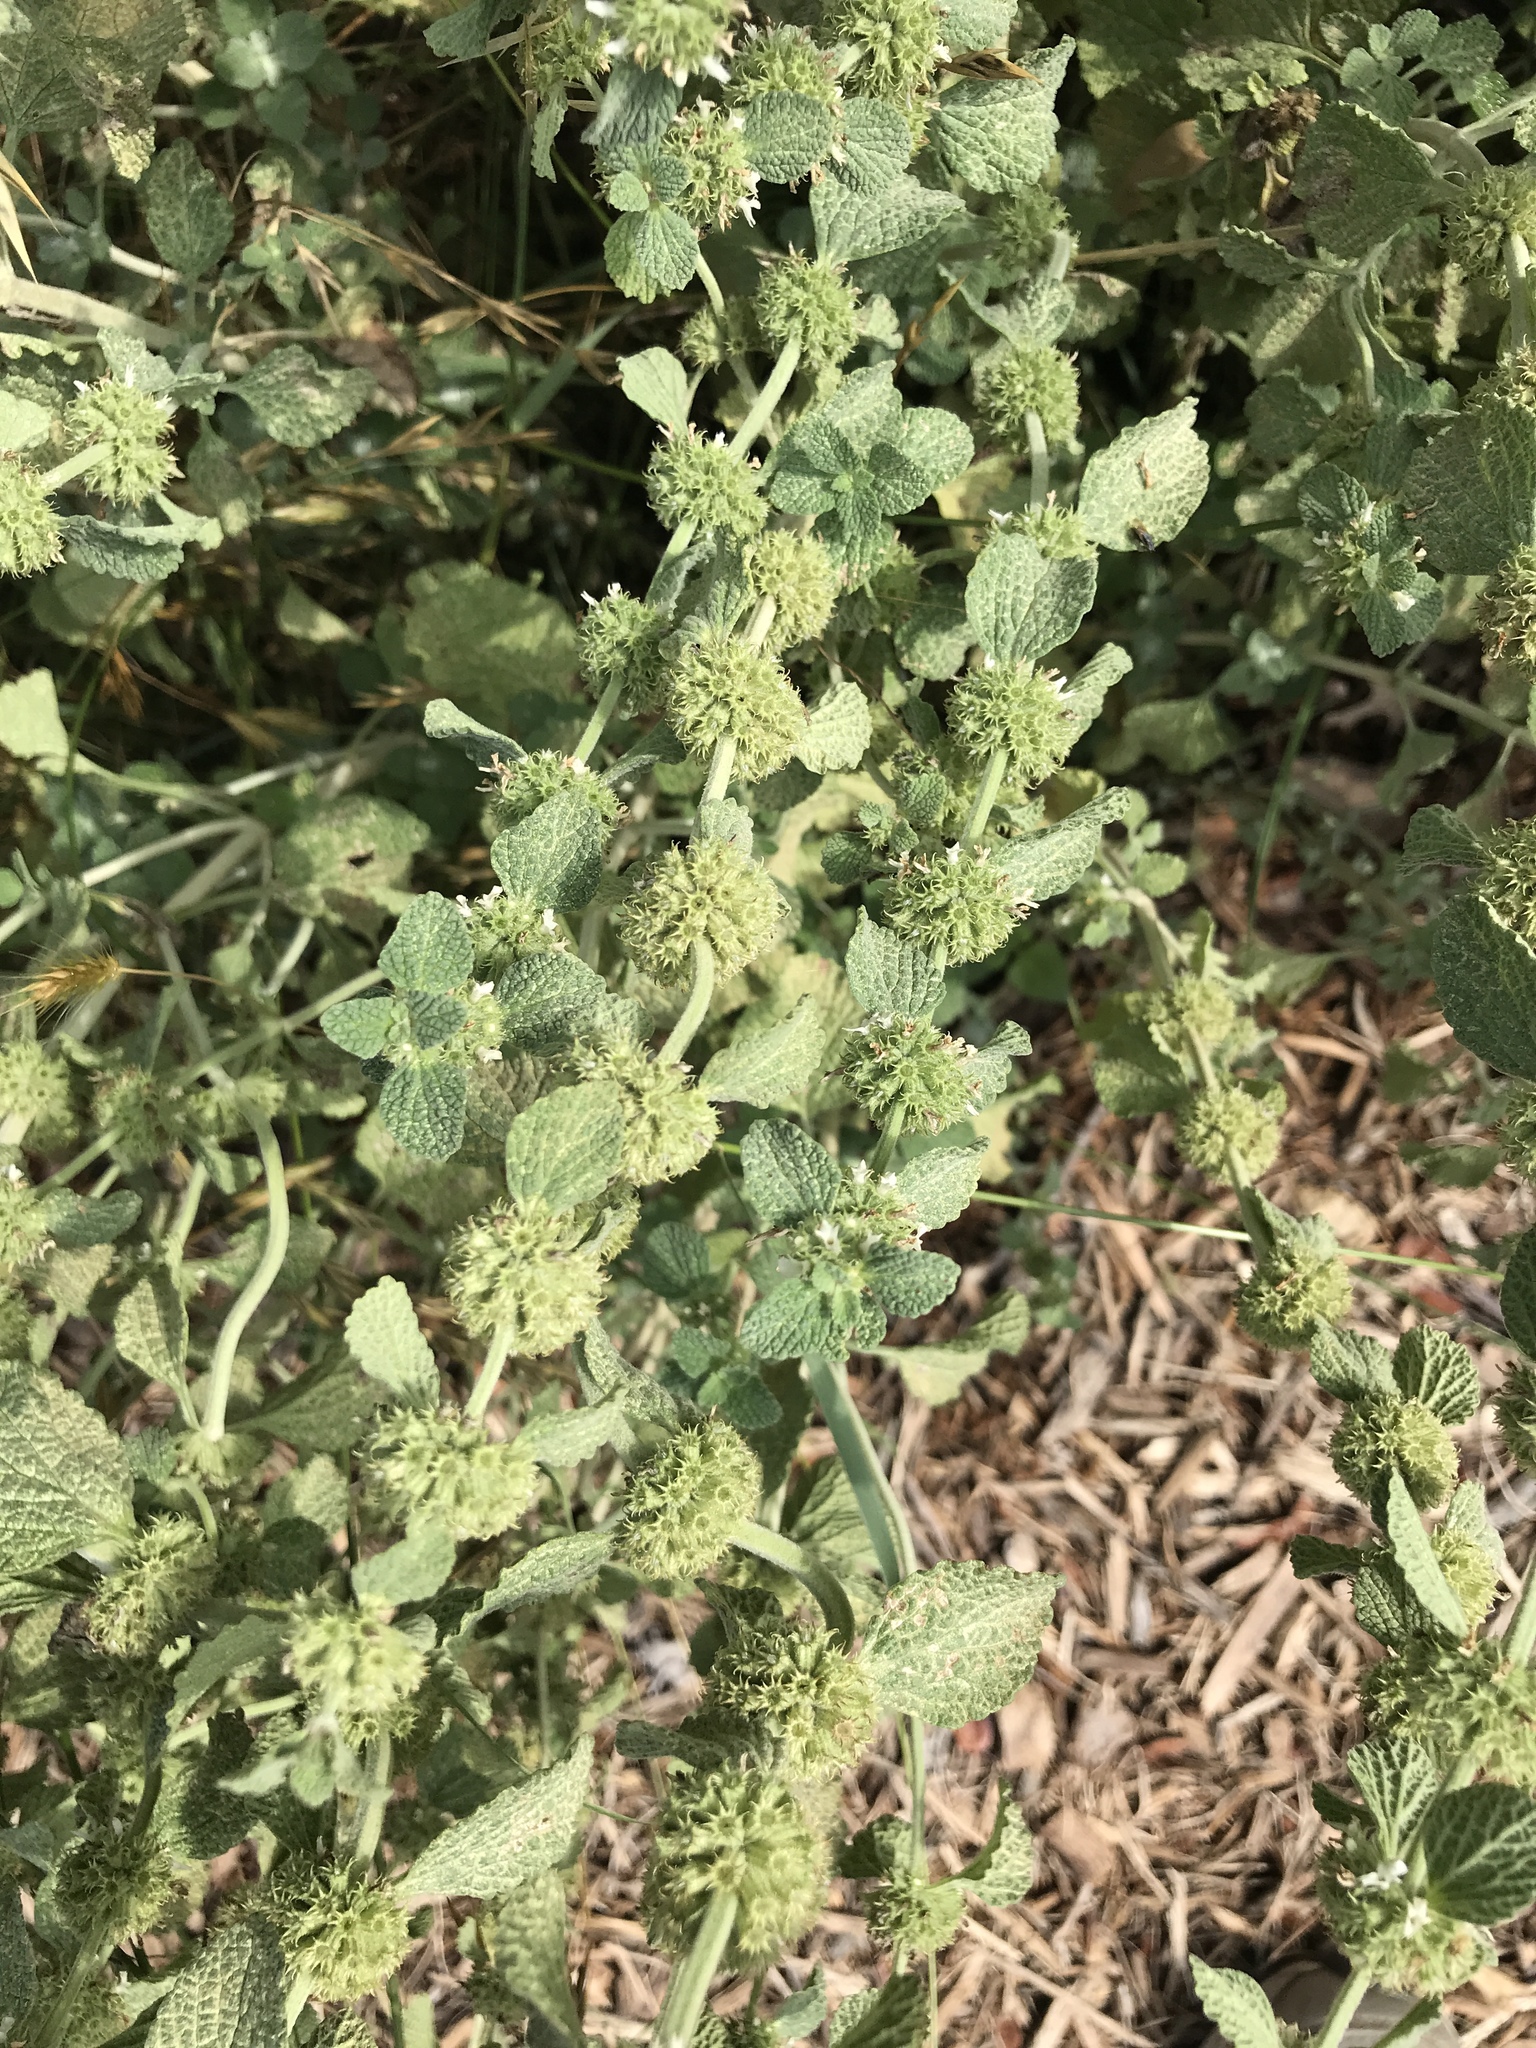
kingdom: Plantae
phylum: Tracheophyta
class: Magnoliopsida
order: Lamiales
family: Lamiaceae
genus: Marrubium
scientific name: Marrubium vulgare
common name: Horehound
